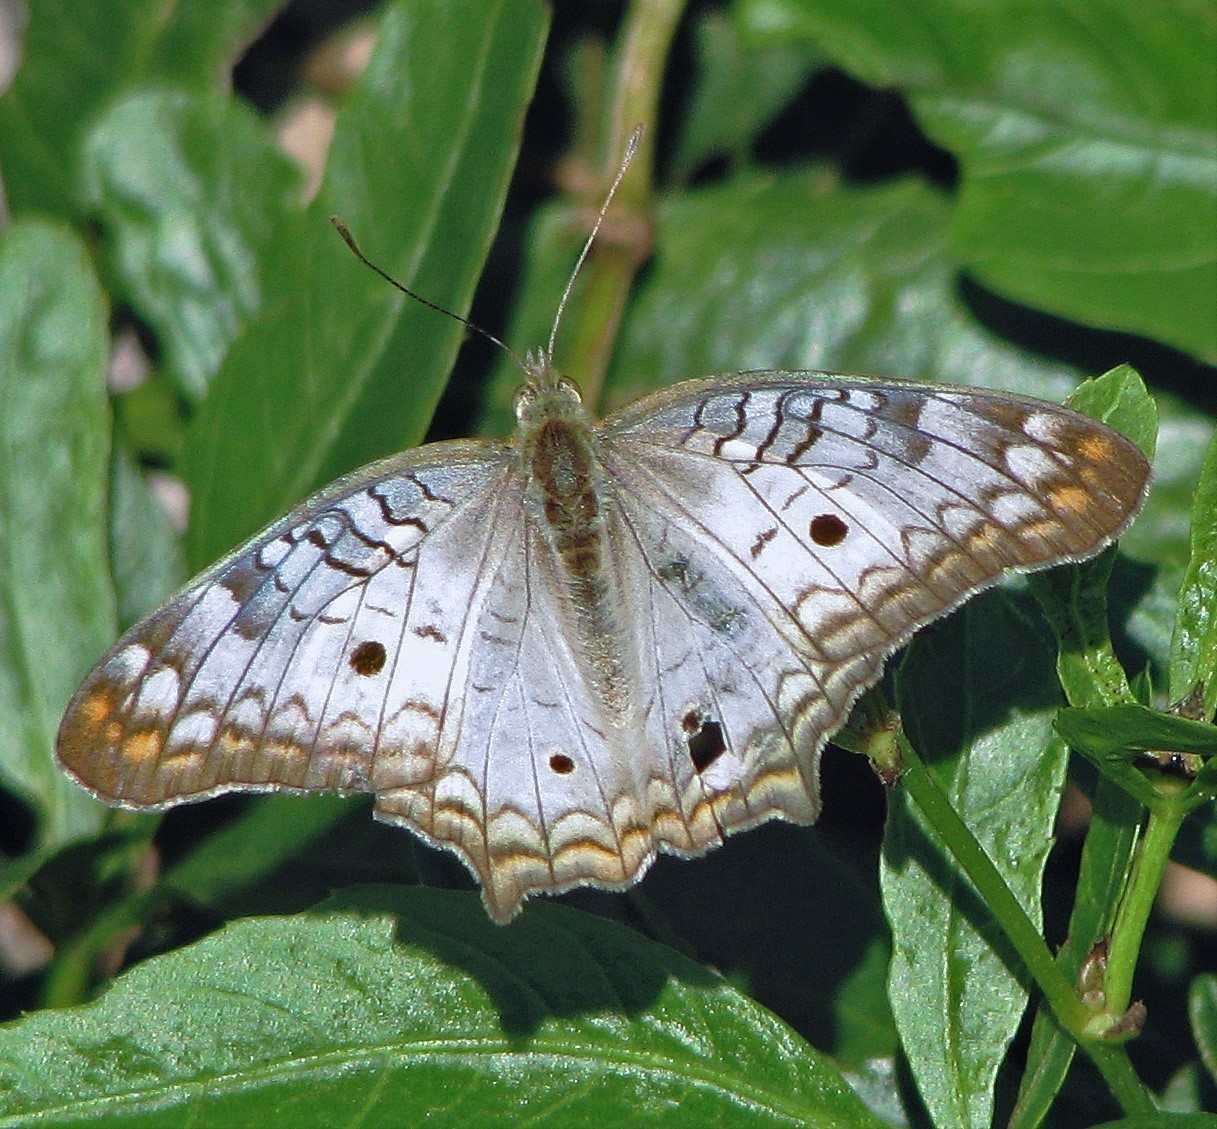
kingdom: Animalia
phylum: Arthropoda
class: Insecta
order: Lepidoptera
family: Nymphalidae
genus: Anartia
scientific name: Anartia jatrophae
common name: White peacock
